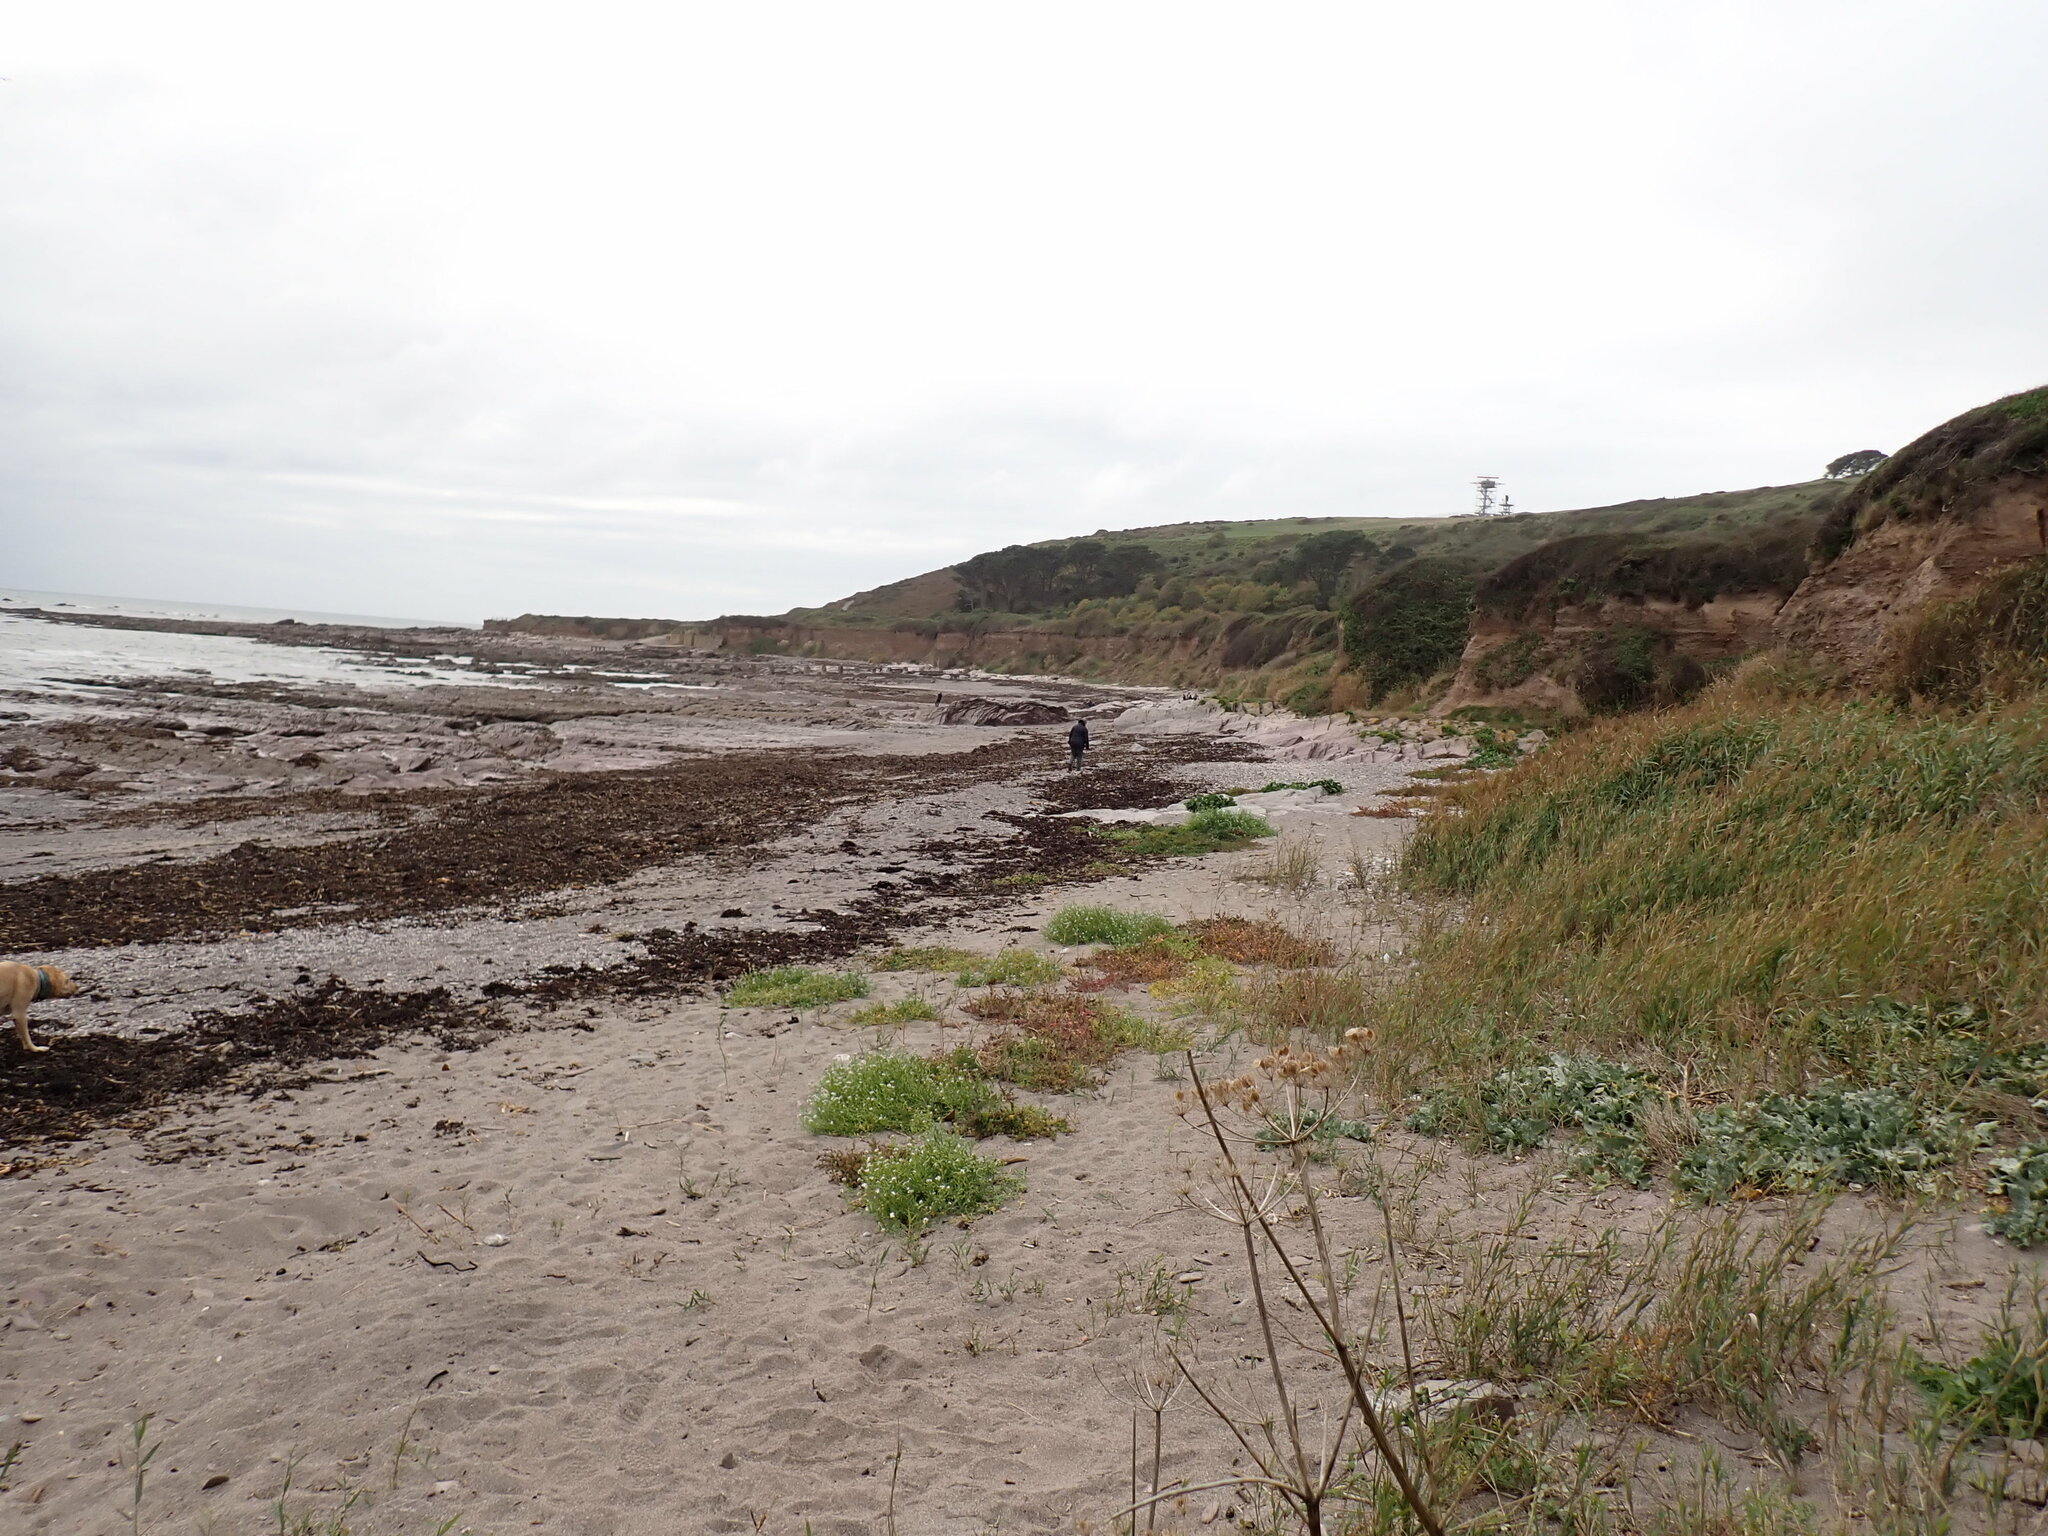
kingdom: Plantae
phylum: Tracheophyta
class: Magnoliopsida
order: Brassicales
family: Brassicaceae
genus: Crambe
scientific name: Crambe maritima
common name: Sea-kale
